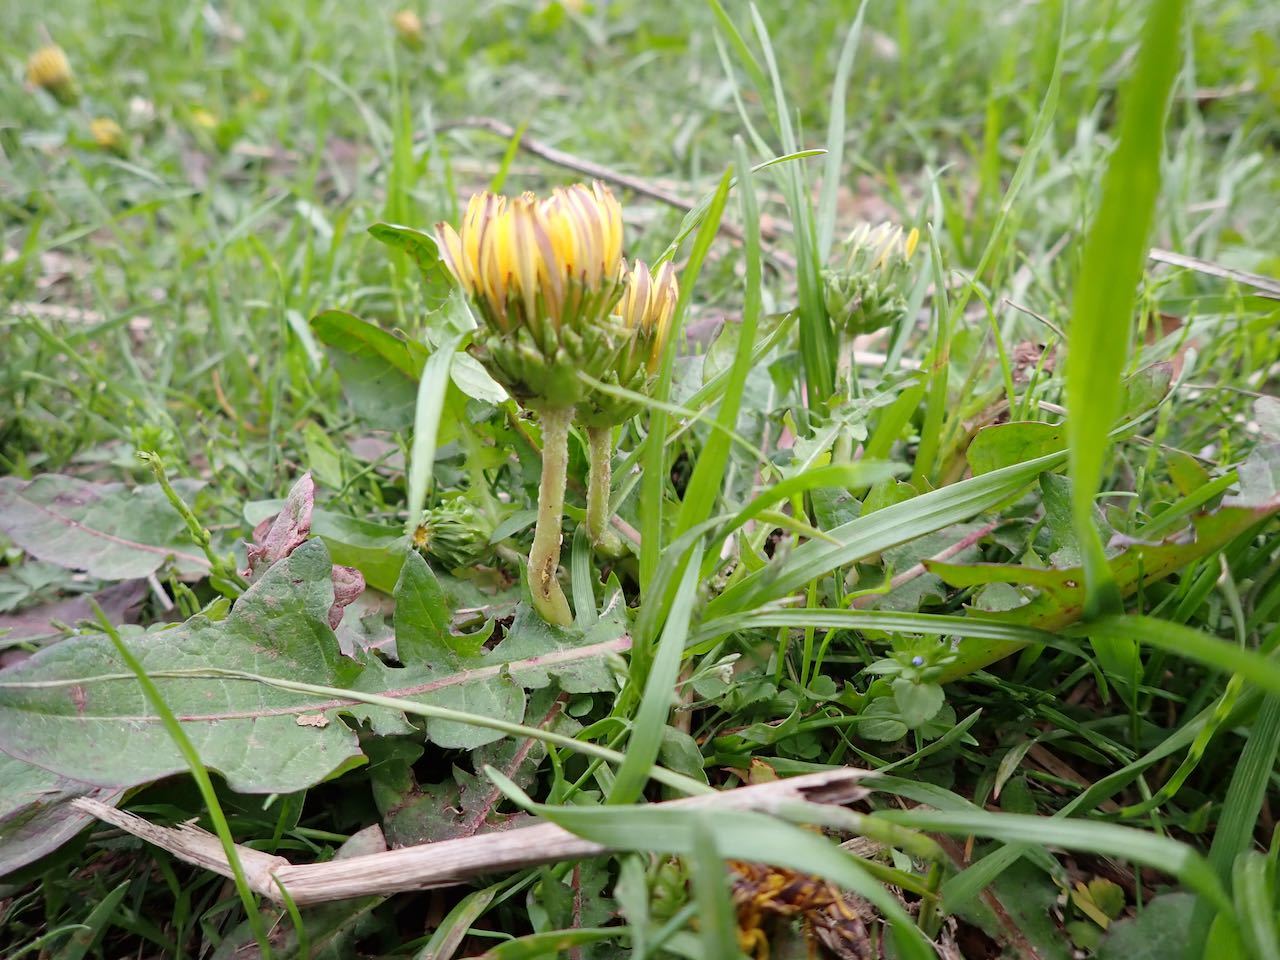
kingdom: Plantae
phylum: Tracheophyta
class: Magnoliopsida
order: Asterales
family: Asteraceae
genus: Taraxacum
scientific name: Taraxacum platycarpum
